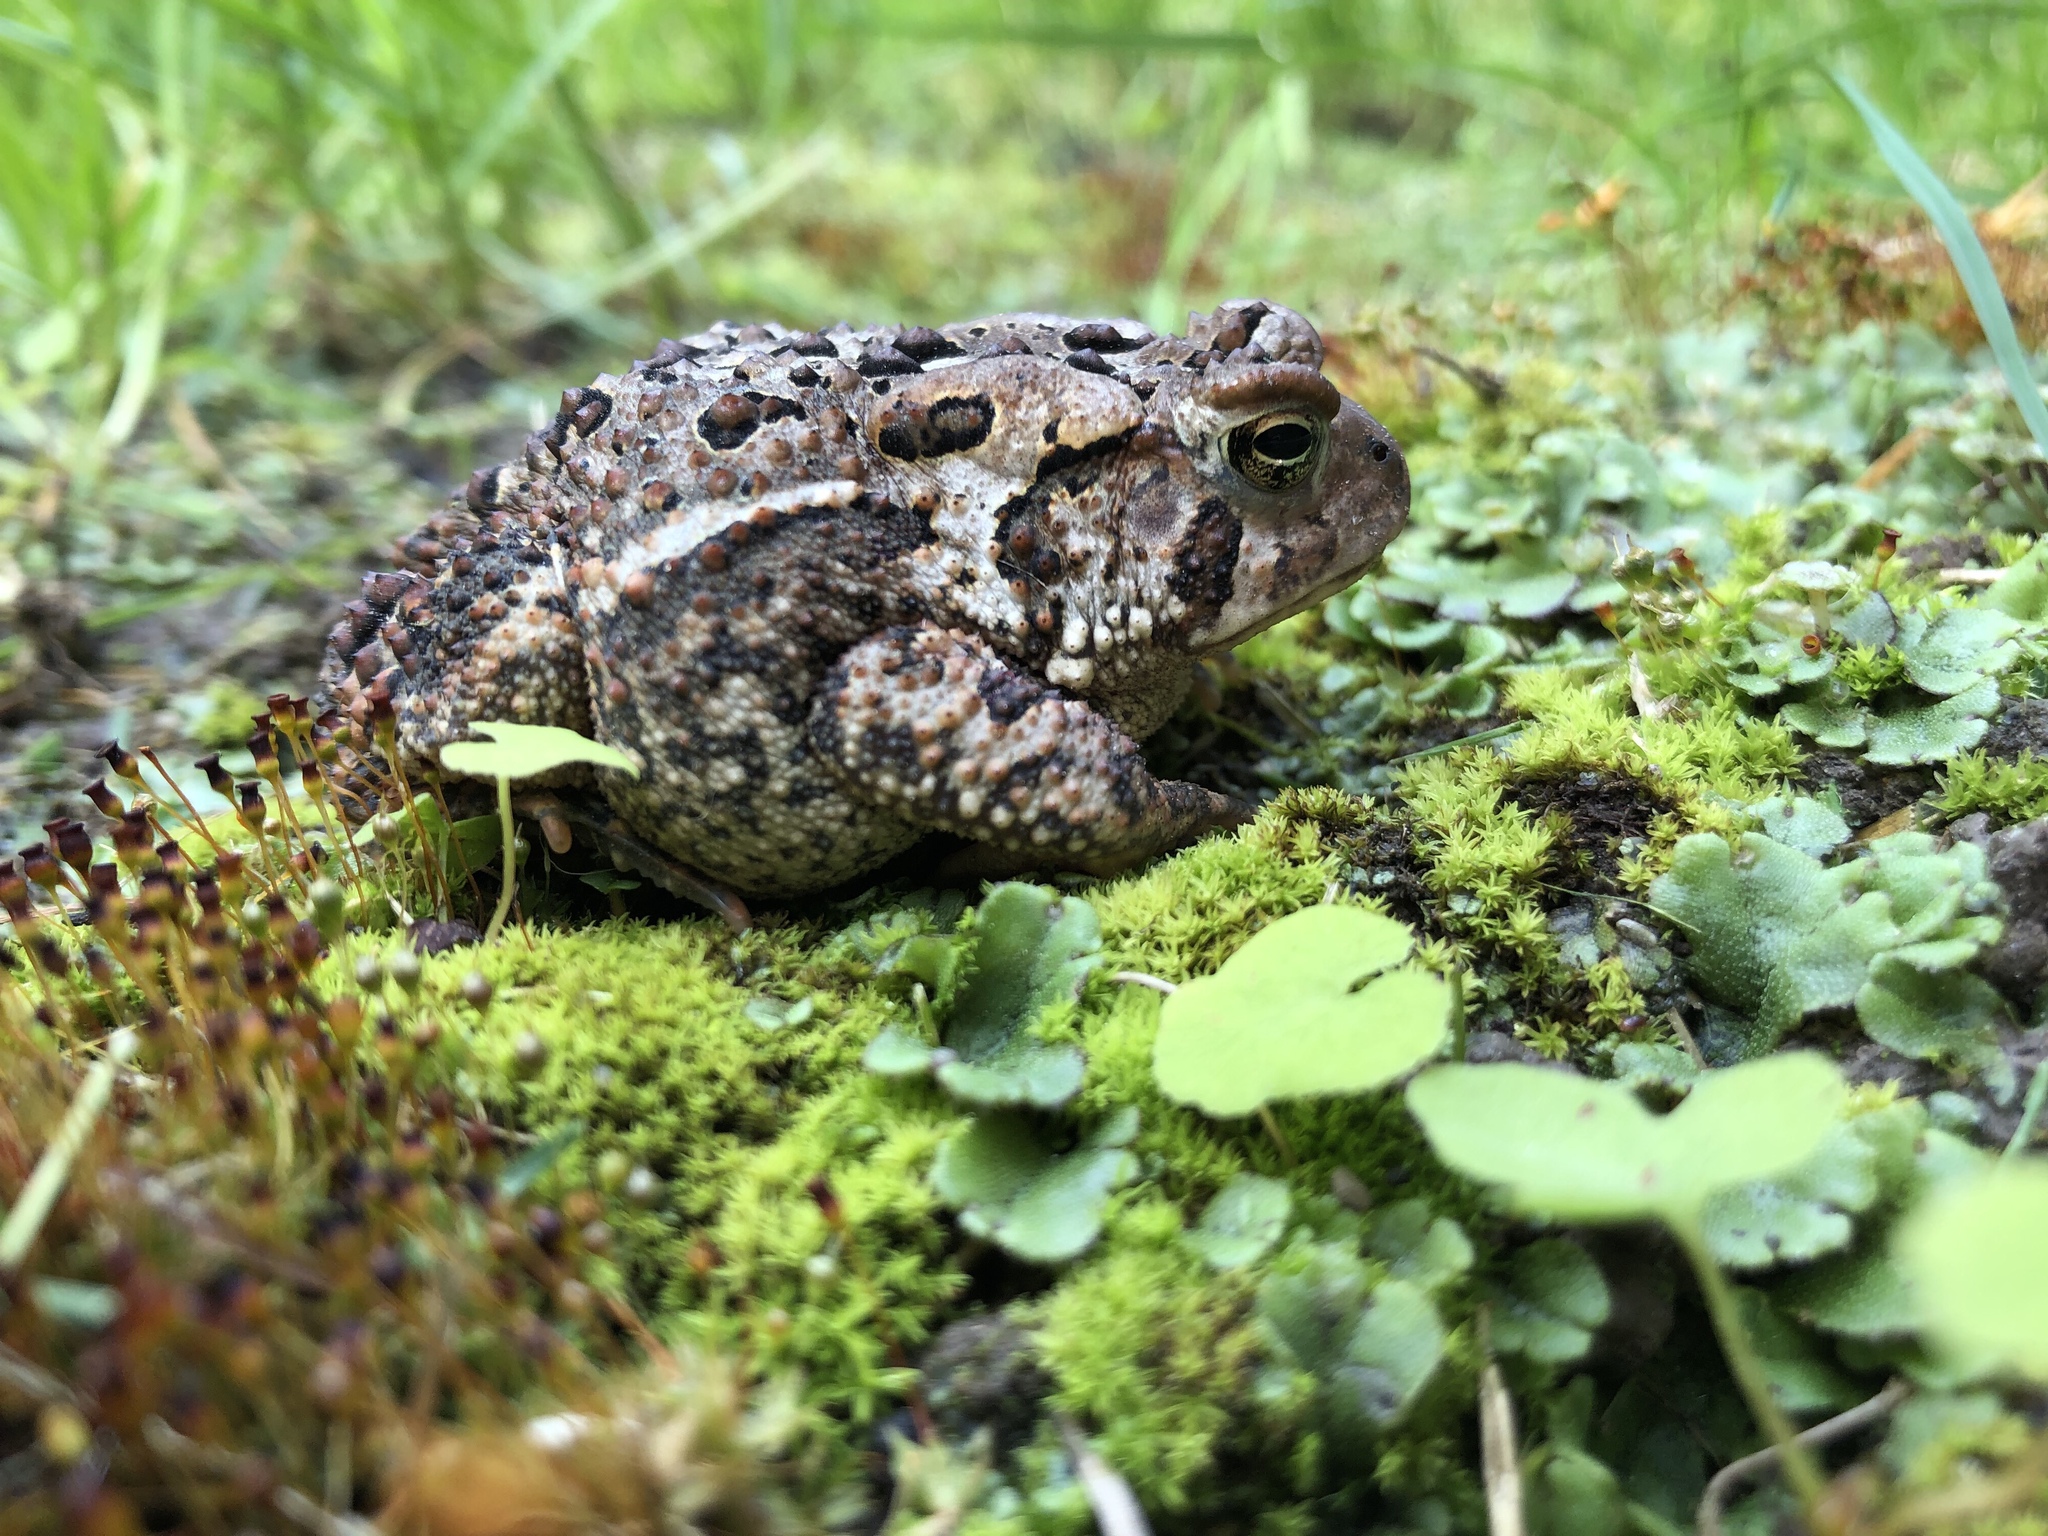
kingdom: Animalia
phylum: Chordata
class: Amphibia
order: Anura
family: Bufonidae
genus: Anaxyrus
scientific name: Anaxyrus americanus
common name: American toad
